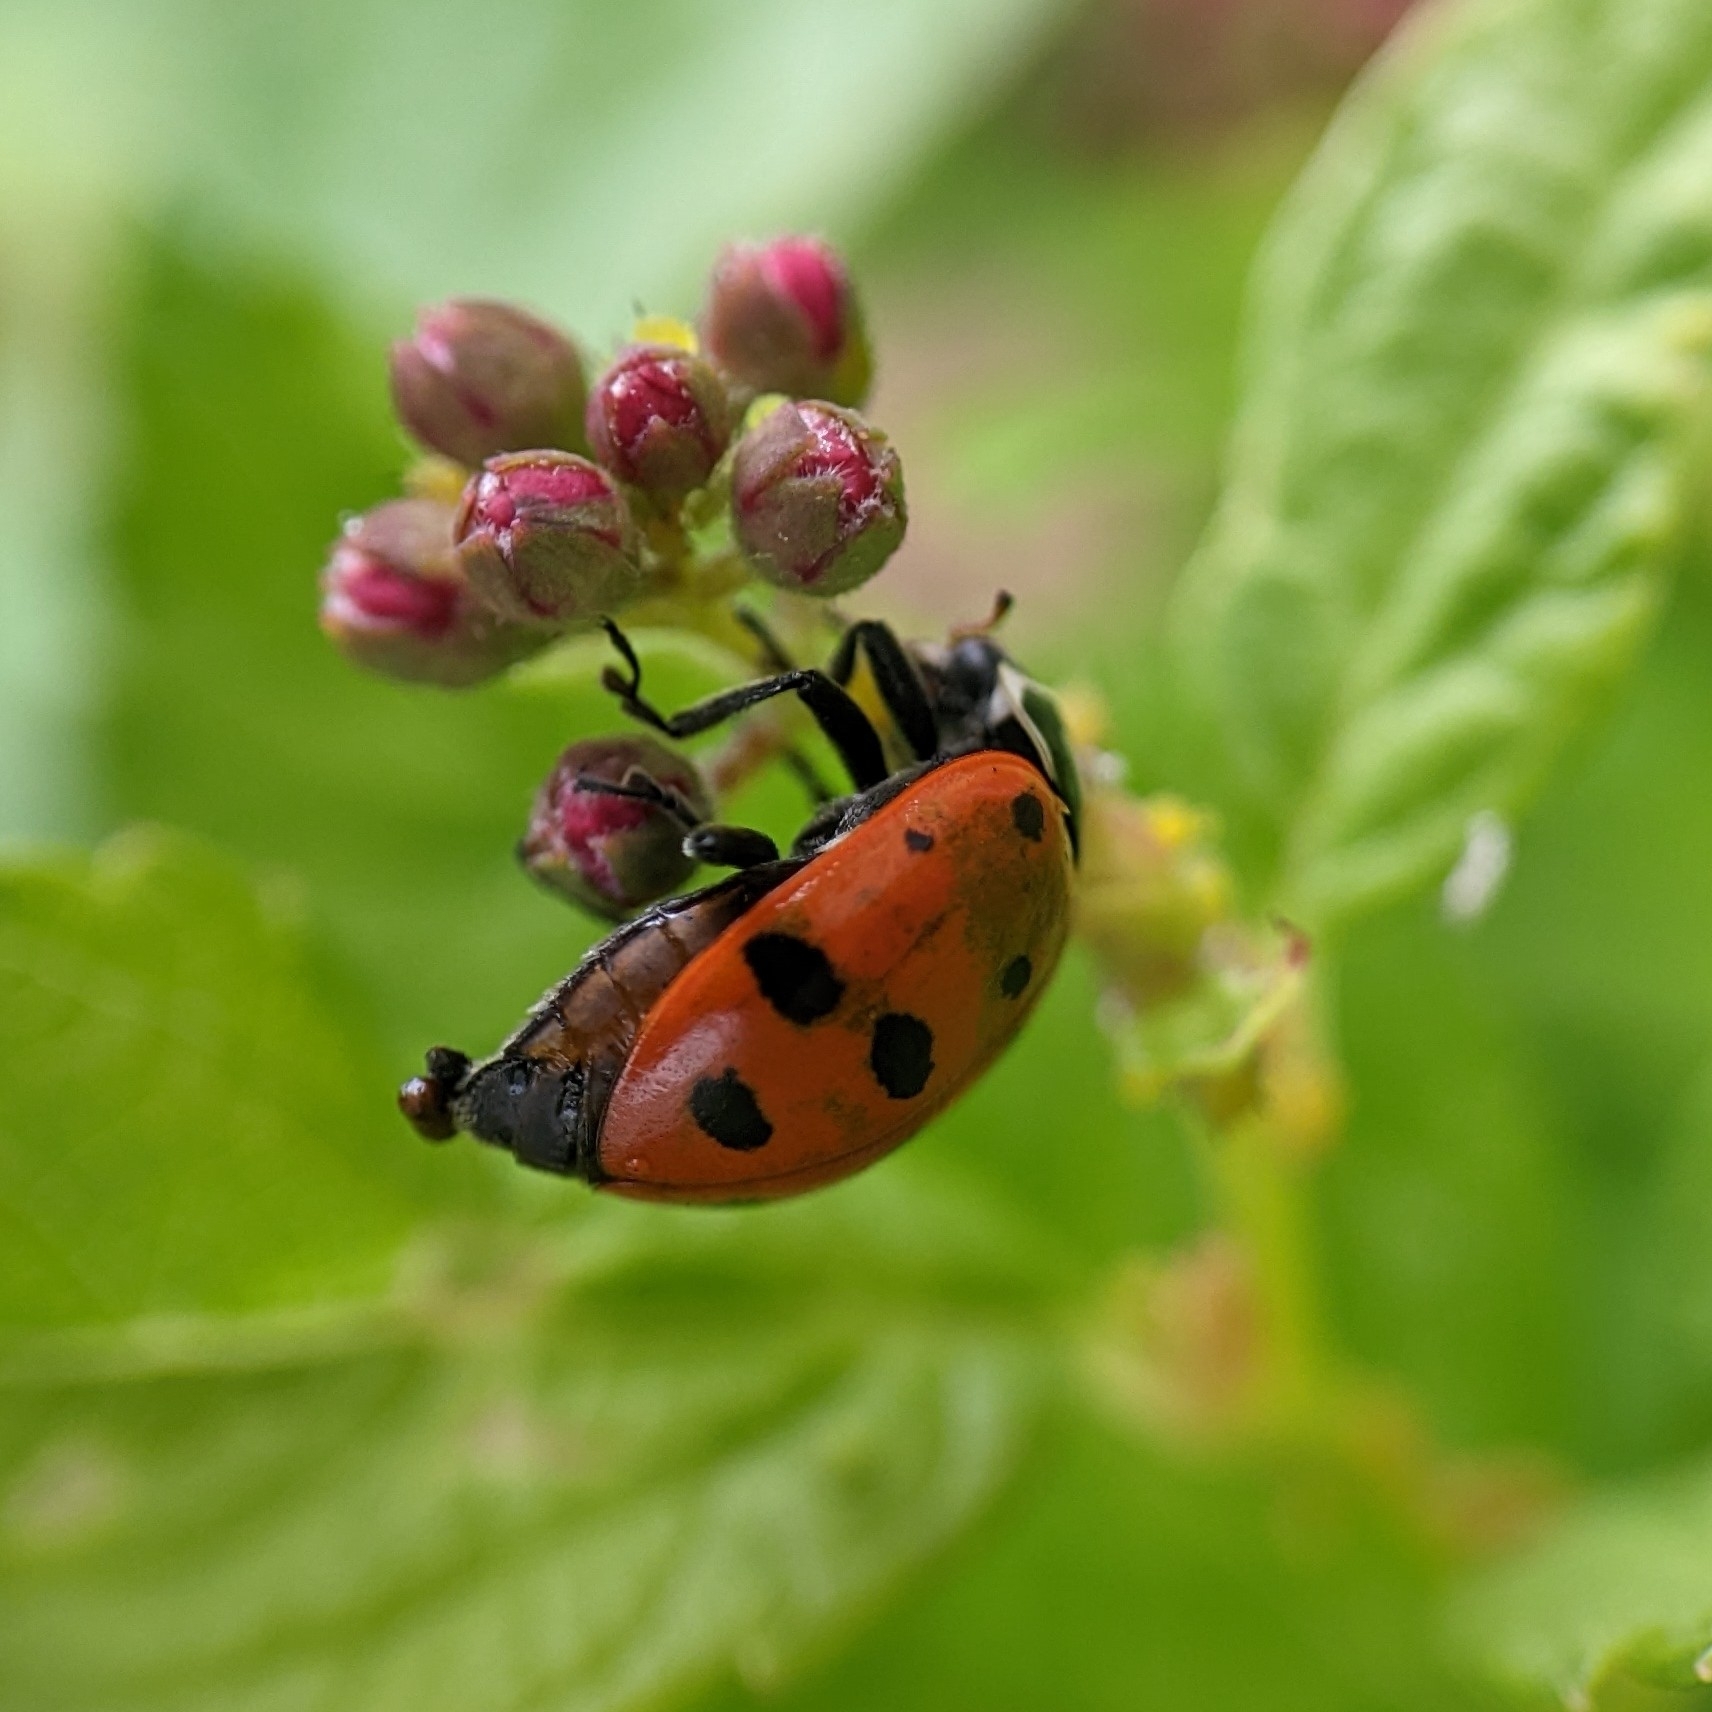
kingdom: Animalia
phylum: Arthropoda
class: Insecta
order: Coleoptera
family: Coccinellidae
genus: Hippodamia
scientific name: Hippodamia convergens
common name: Convergent lady beetle
